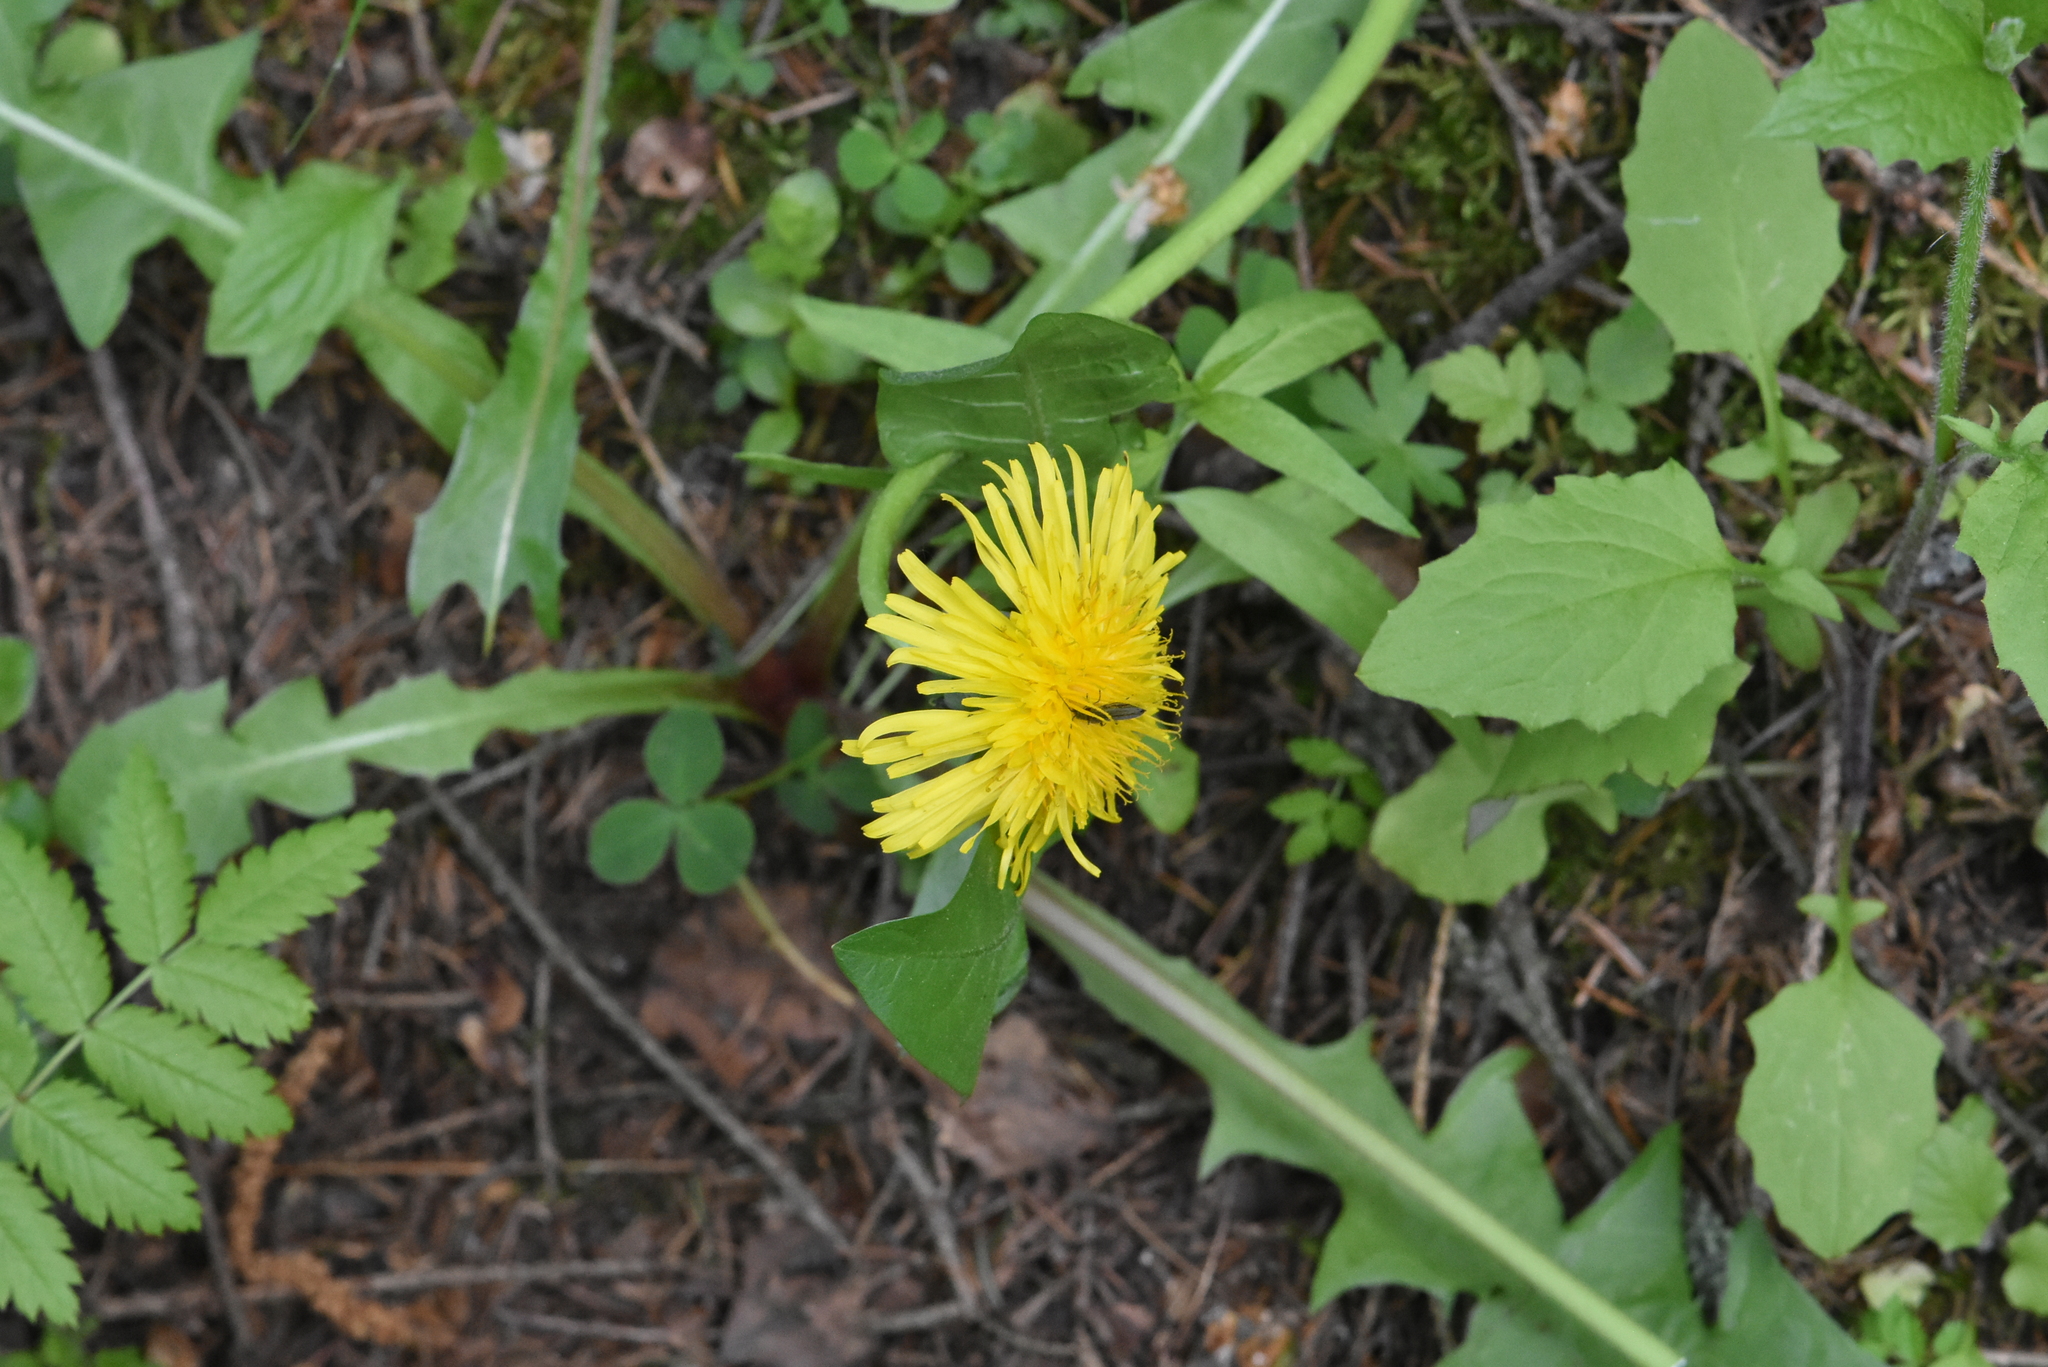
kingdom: Plantae
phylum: Tracheophyta
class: Magnoliopsida
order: Asterales
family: Asteraceae
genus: Taraxacum
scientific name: Taraxacum officinale
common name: Common dandelion
